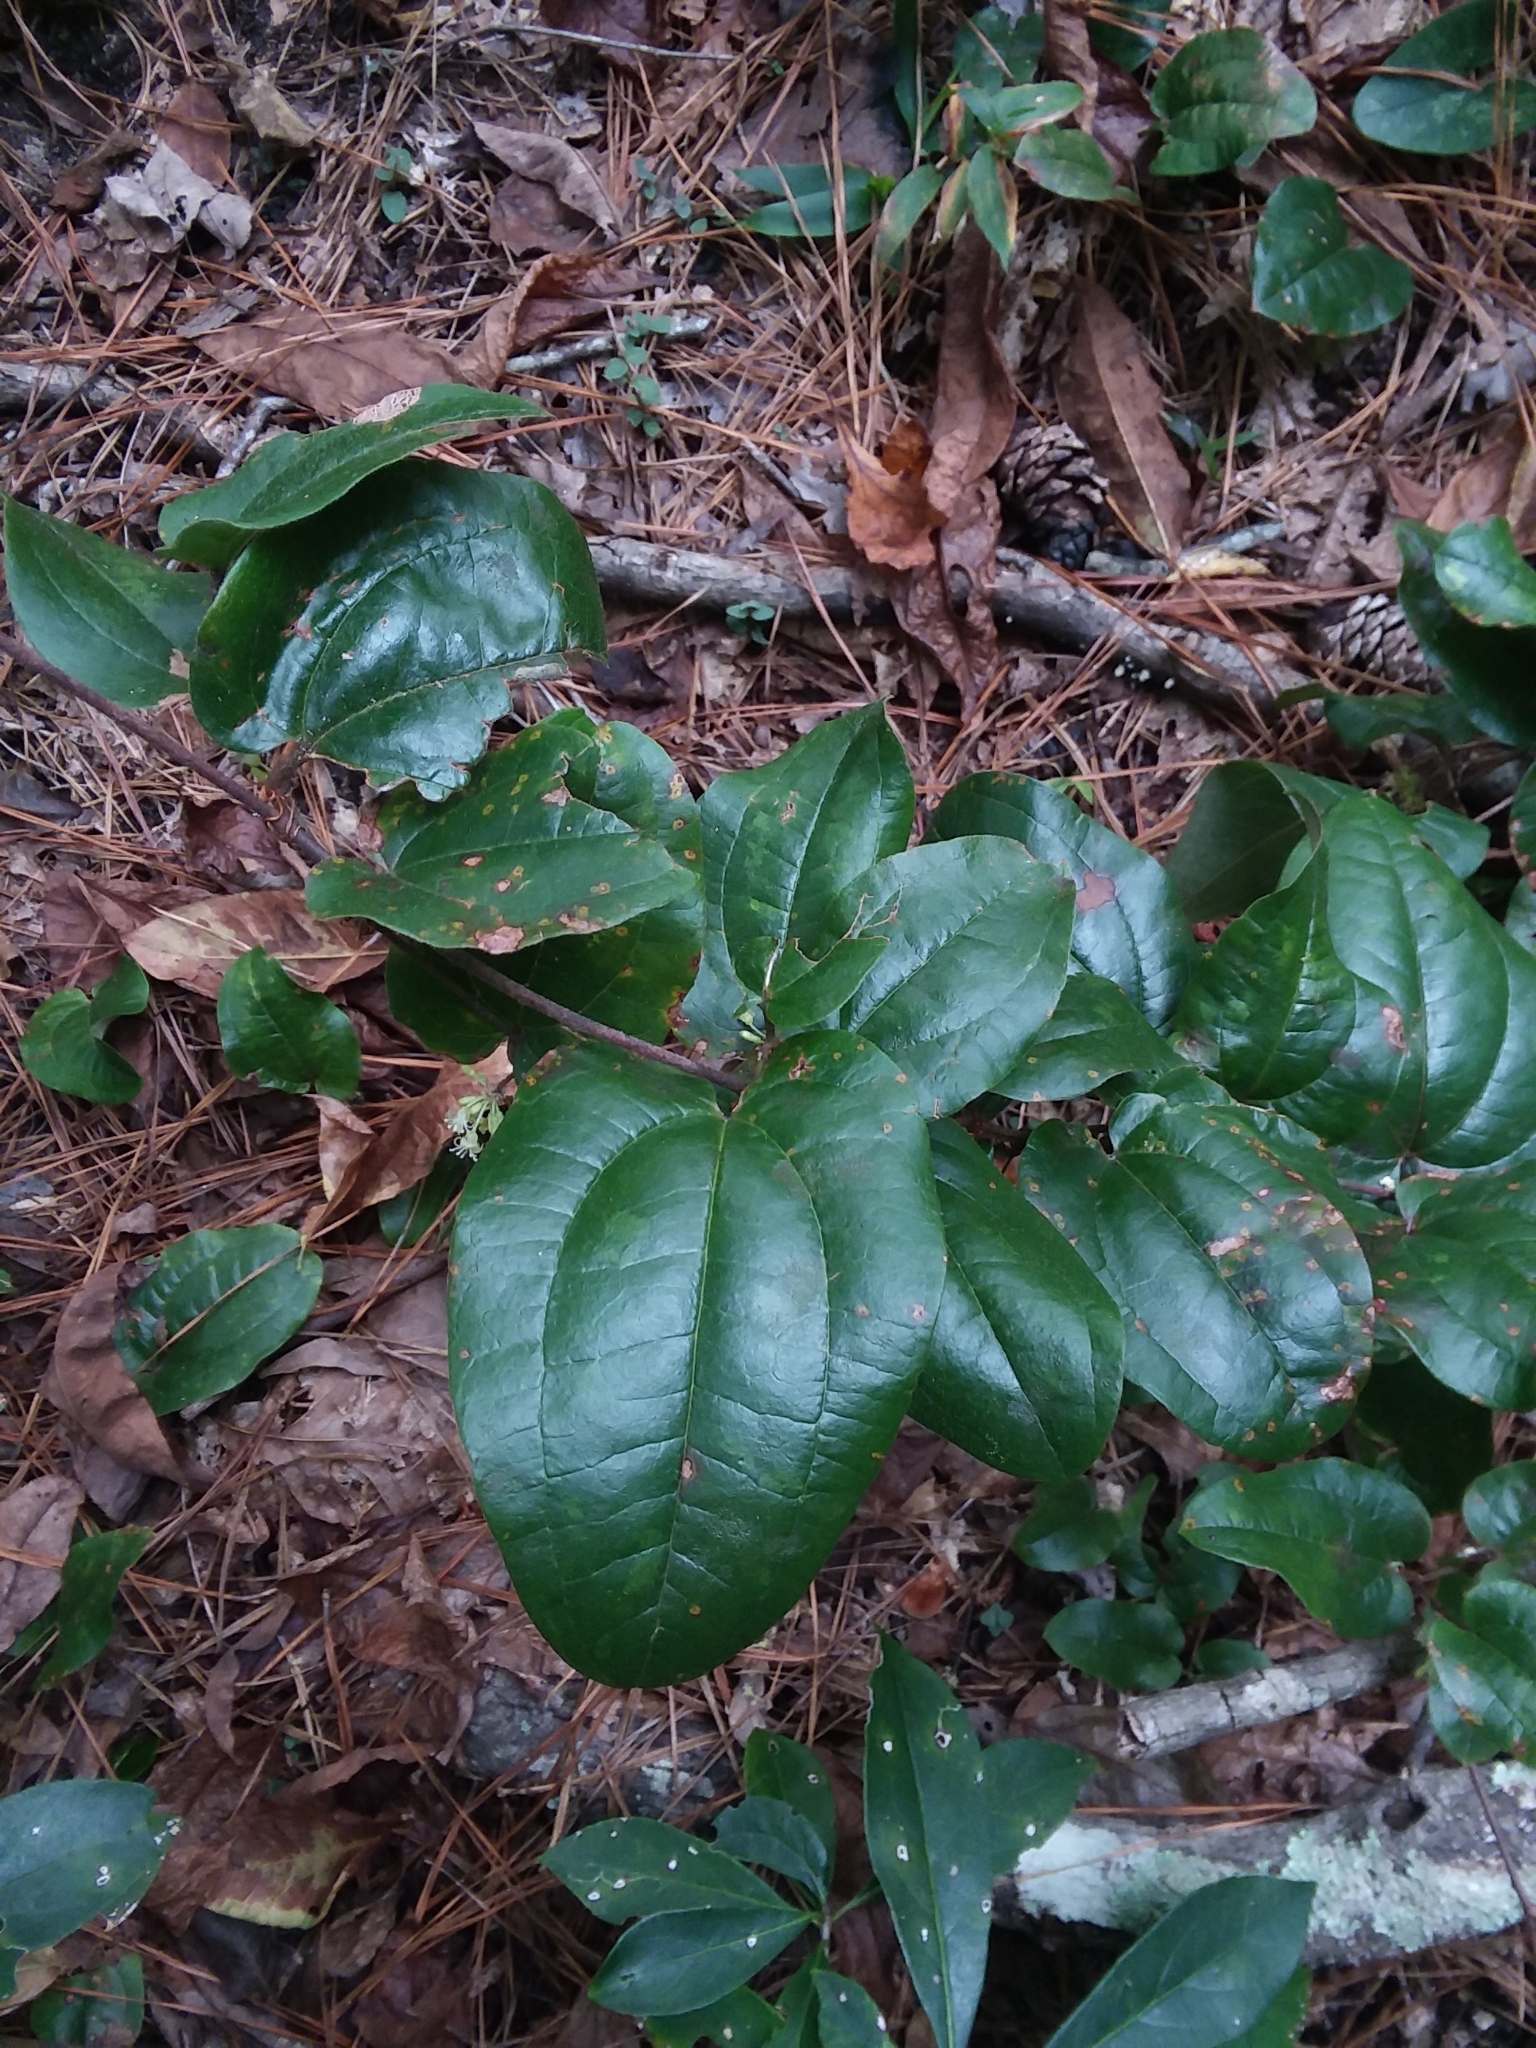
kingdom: Plantae
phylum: Tracheophyta
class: Liliopsida
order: Liliales
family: Smilacaceae
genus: Smilax
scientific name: Smilax pumila
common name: Sarsaparilla-vine
